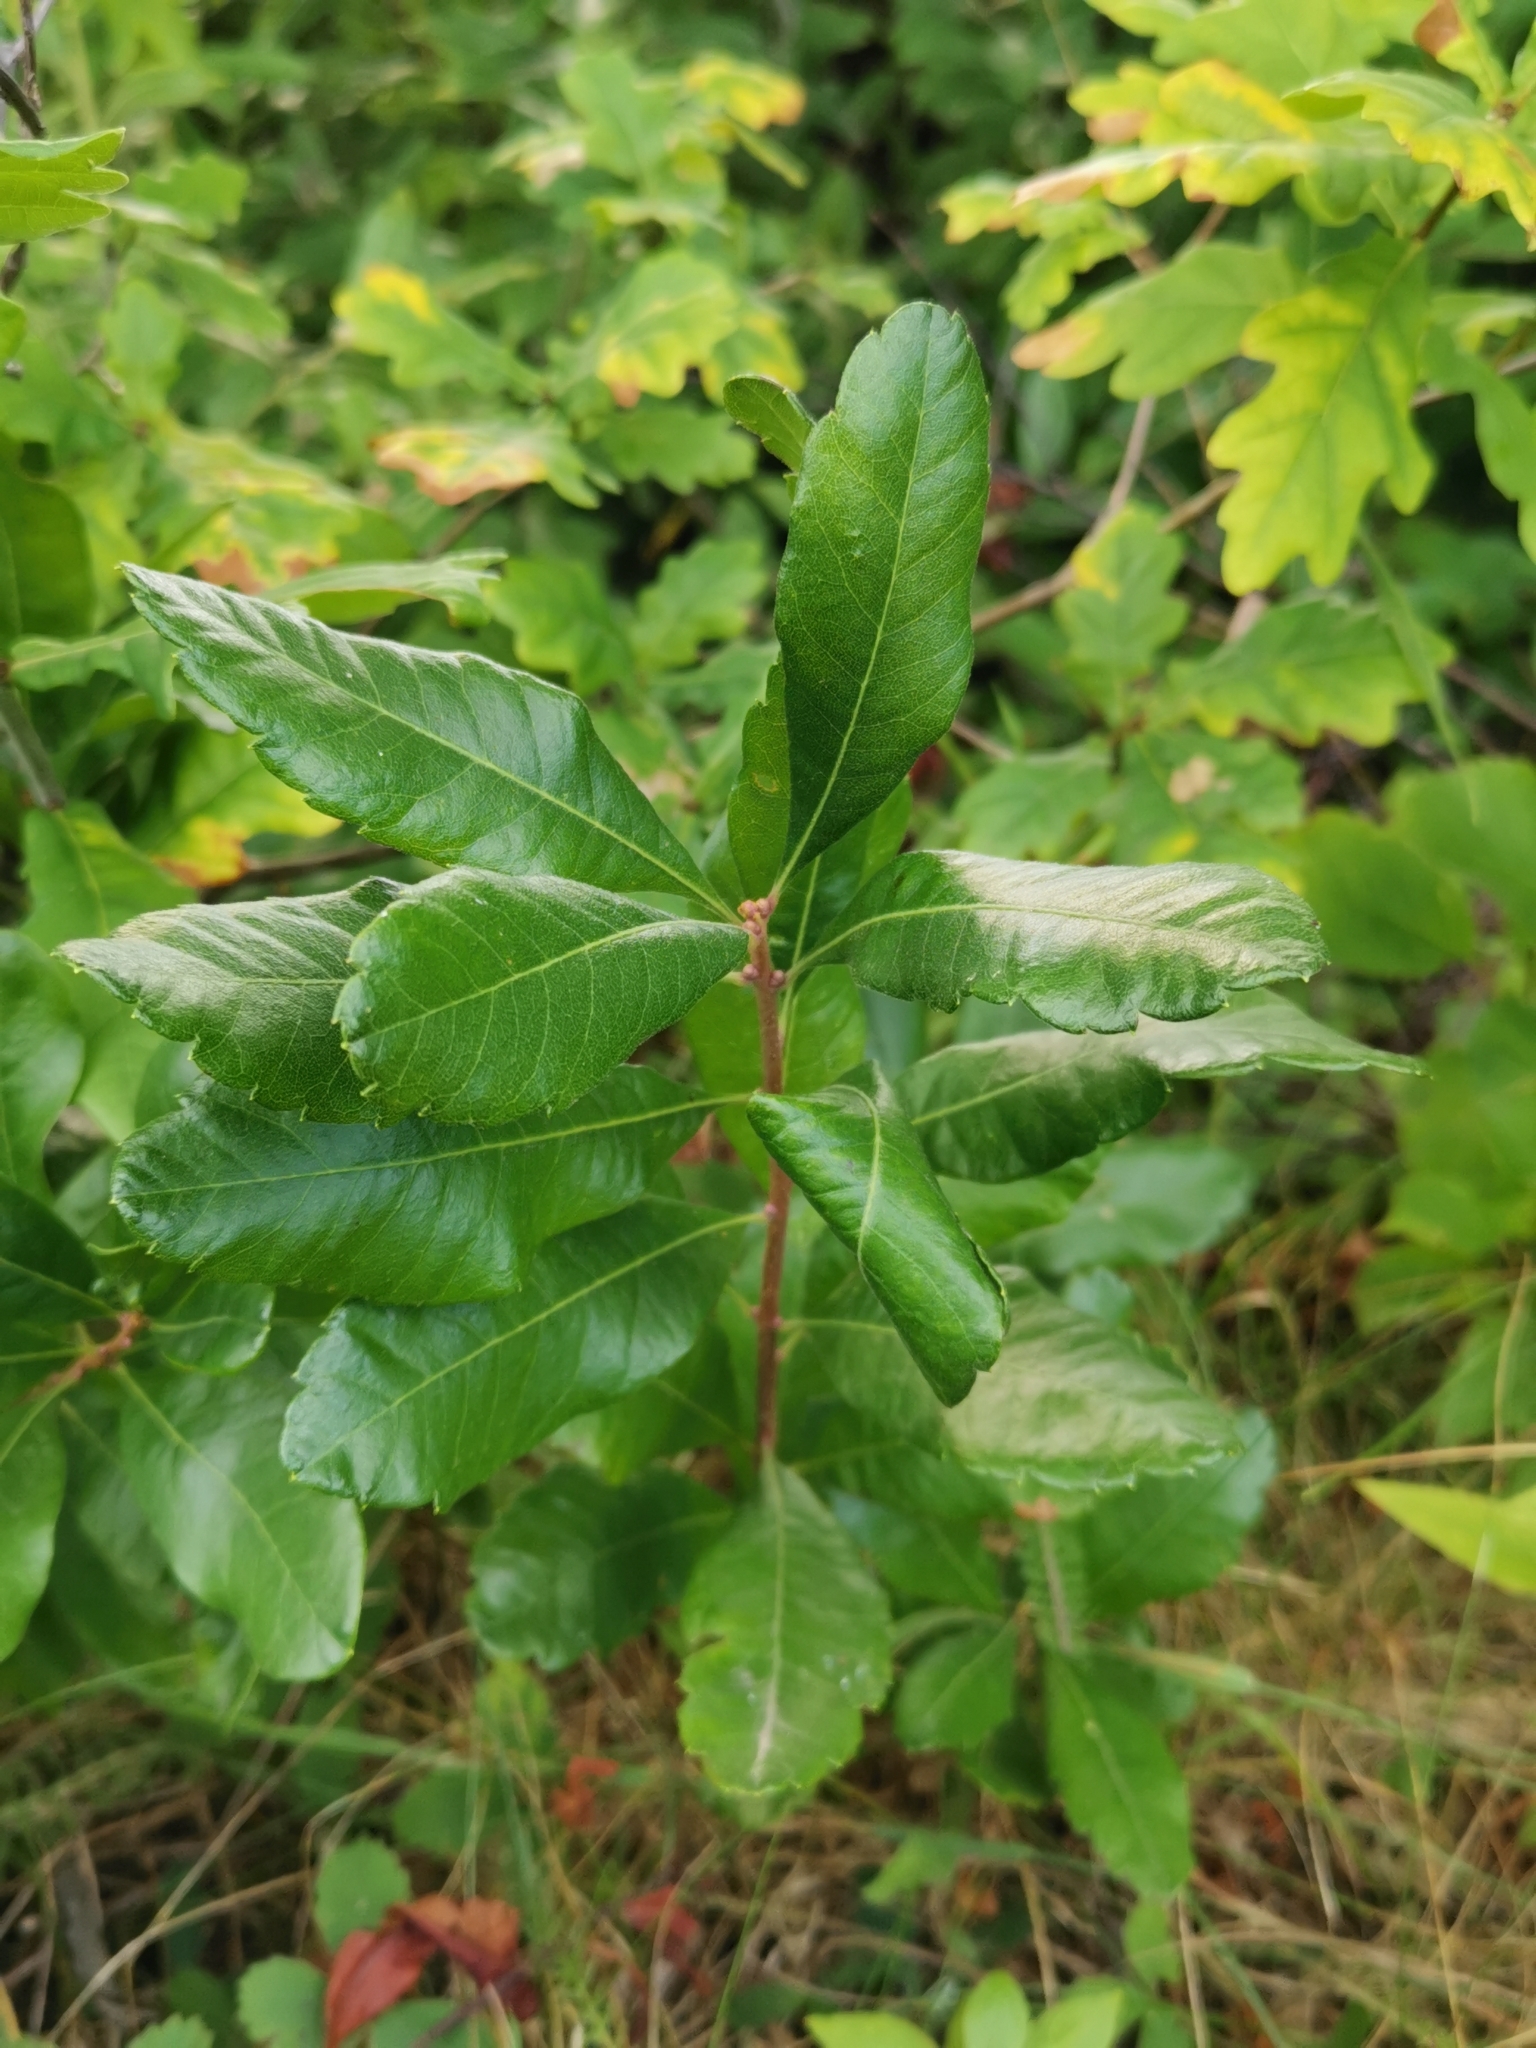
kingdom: Plantae
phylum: Tracheophyta
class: Magnoliopsida
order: Fagales
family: Myricaceae
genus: Morella
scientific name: Morella pensylvanica
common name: Northern bayberry
